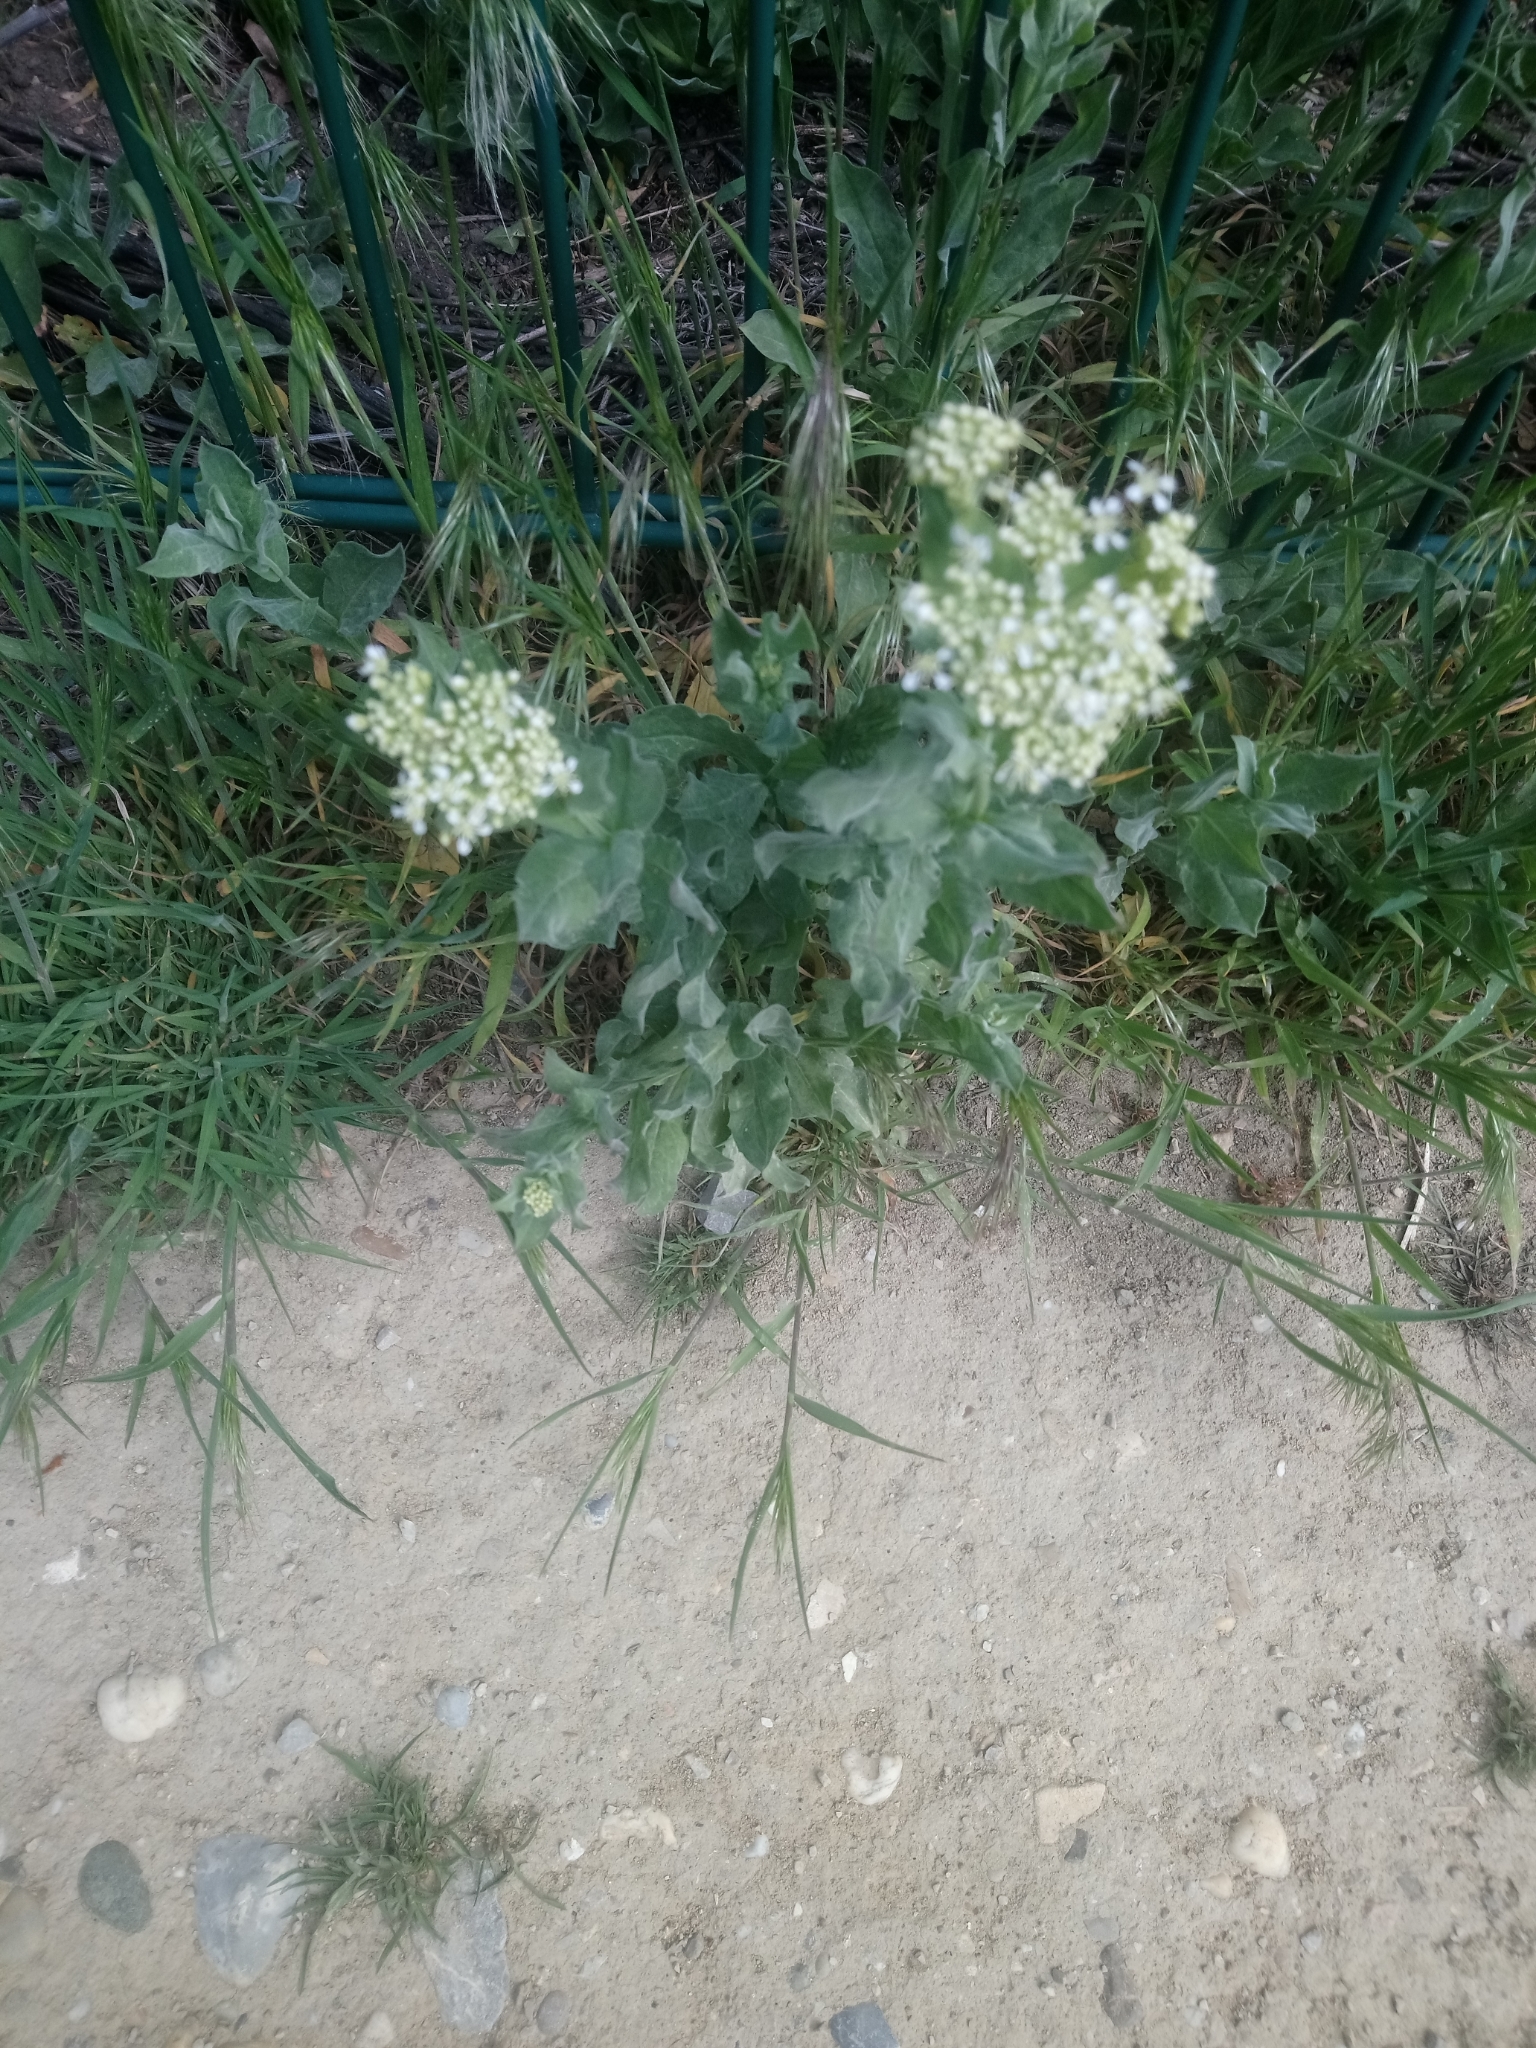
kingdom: Plantae
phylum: Tracheophyta
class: Magnoliopsida
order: Brassicales
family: Brassicaceae
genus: Lepidium
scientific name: Lepidium draba
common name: Hoary cress
